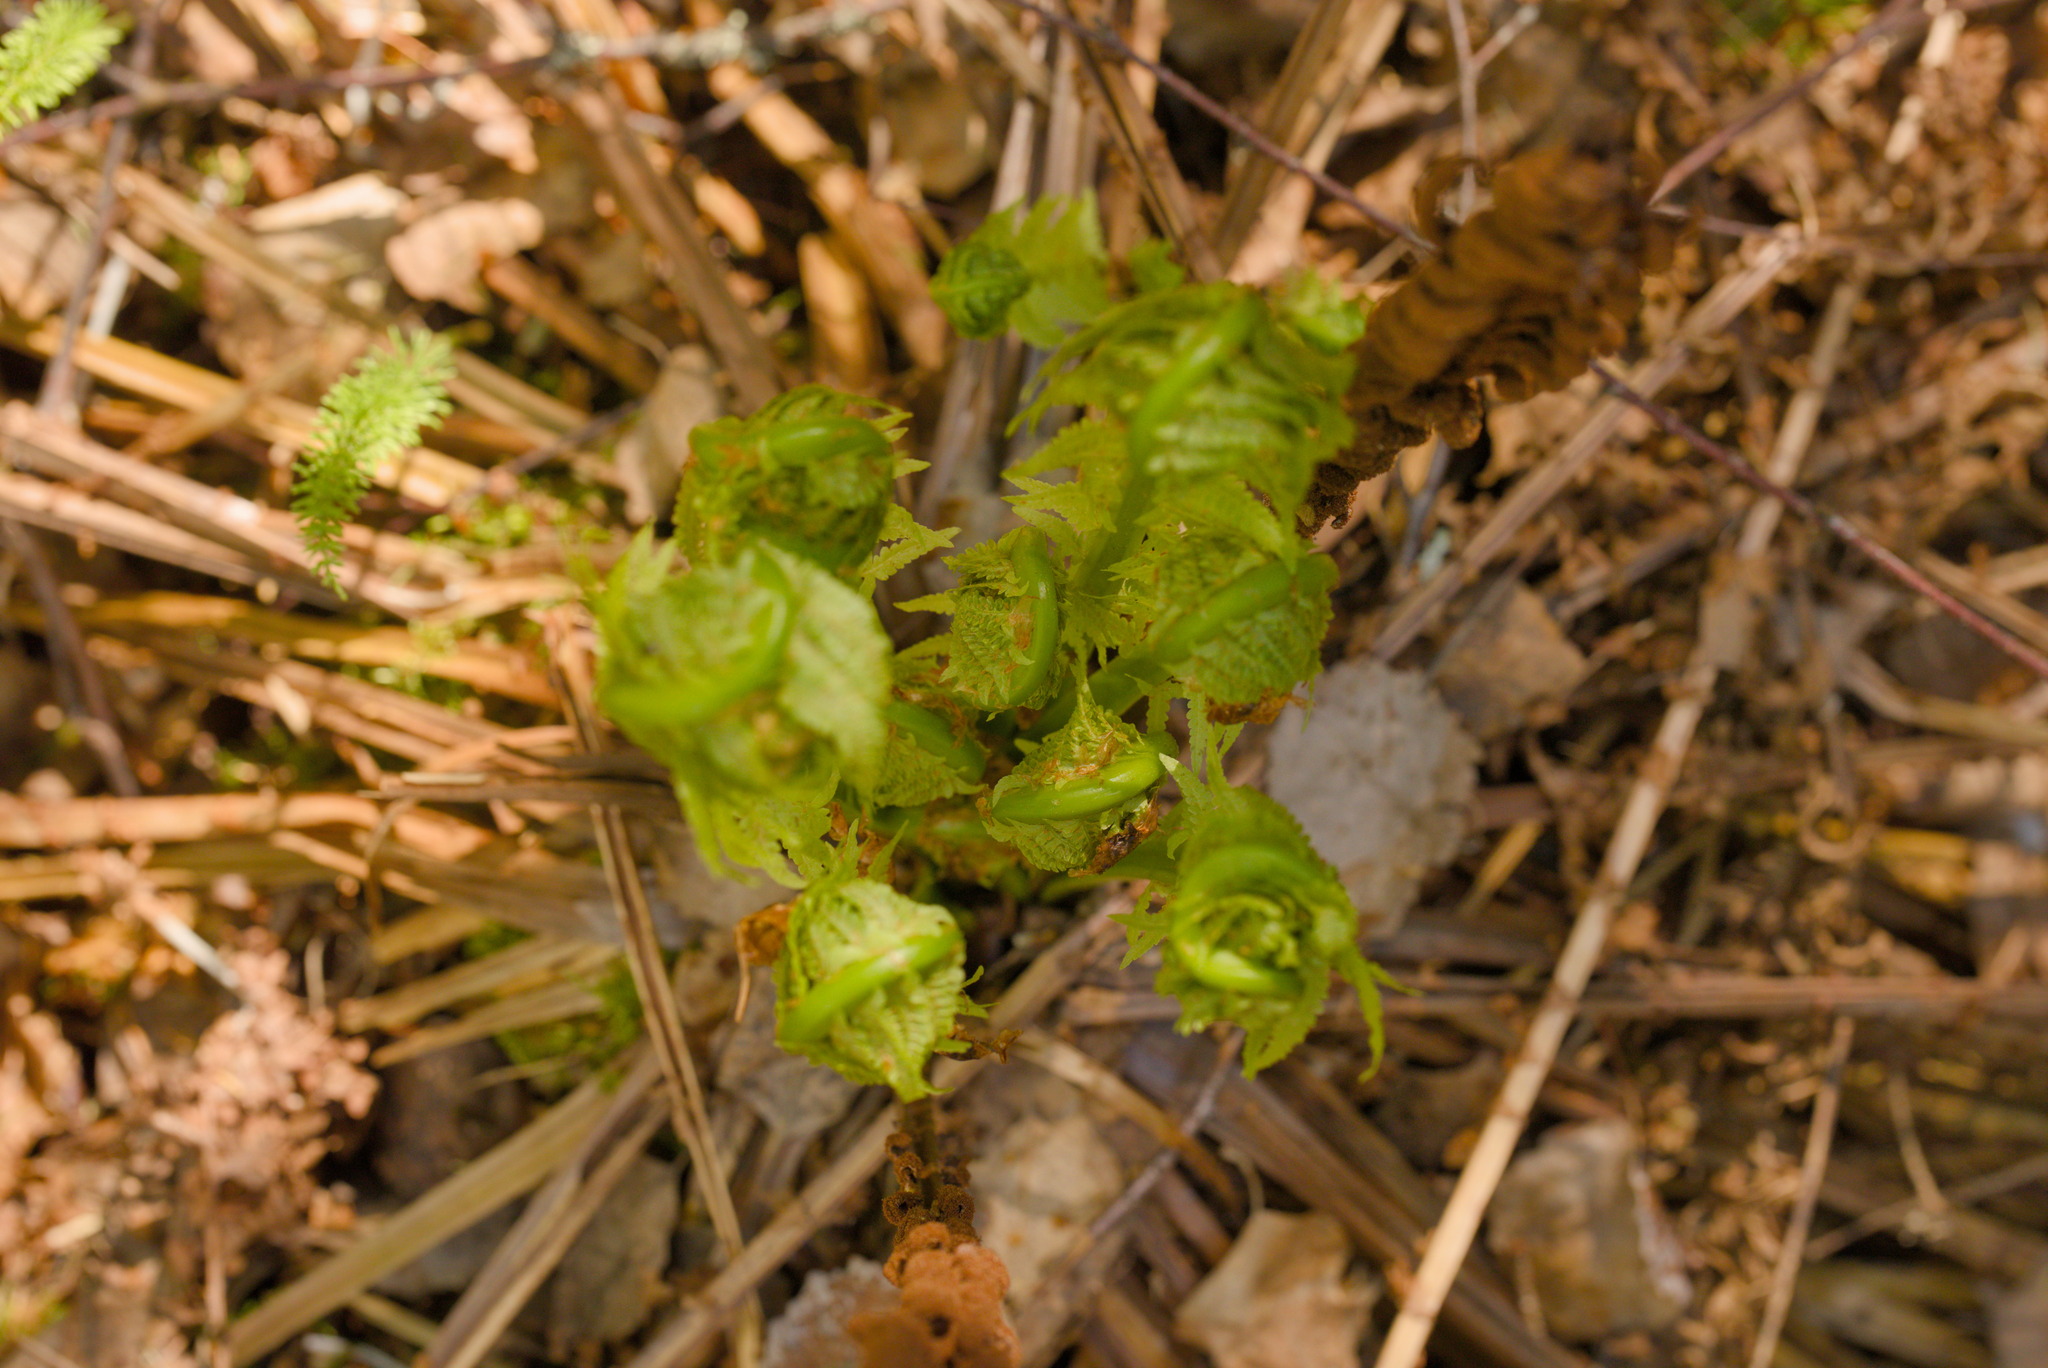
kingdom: Plantae
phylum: Tracheophyta
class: Polypodiopsida
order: Polypodiales
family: Onocleaceae
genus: Matteuccia
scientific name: Matteuccia struthiopteris
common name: Ostrich fern
